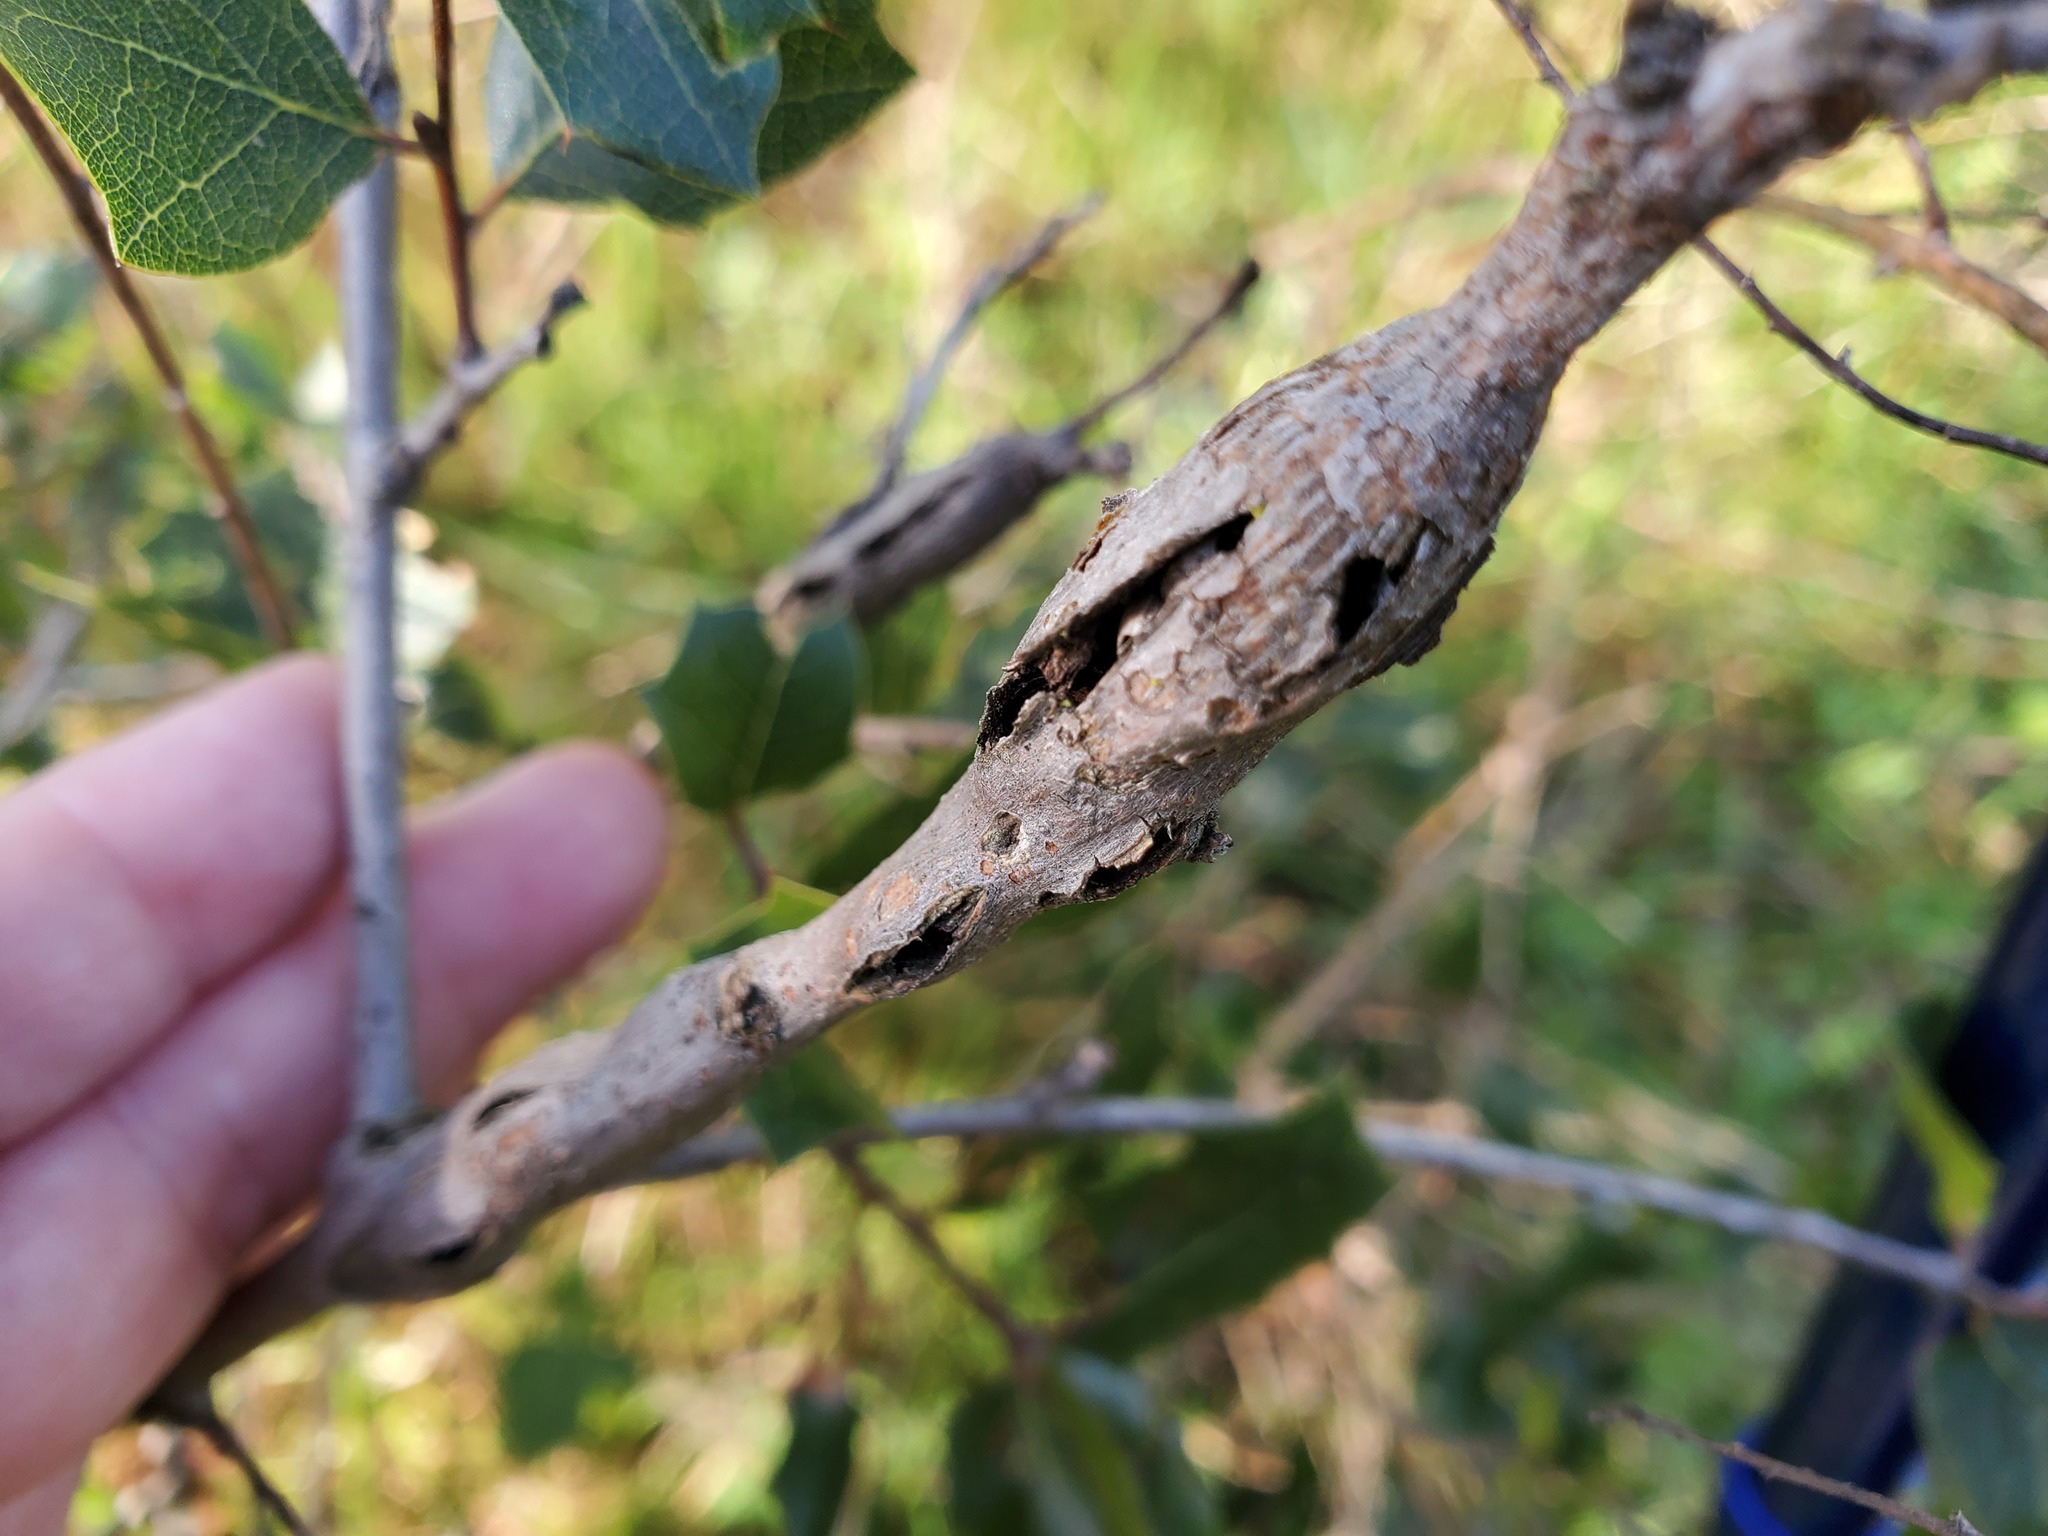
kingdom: Animalia
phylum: Arthropoda
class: Insecta
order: Hymenoptera
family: Cynipidae
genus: Callirhytis
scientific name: Callirhytis
